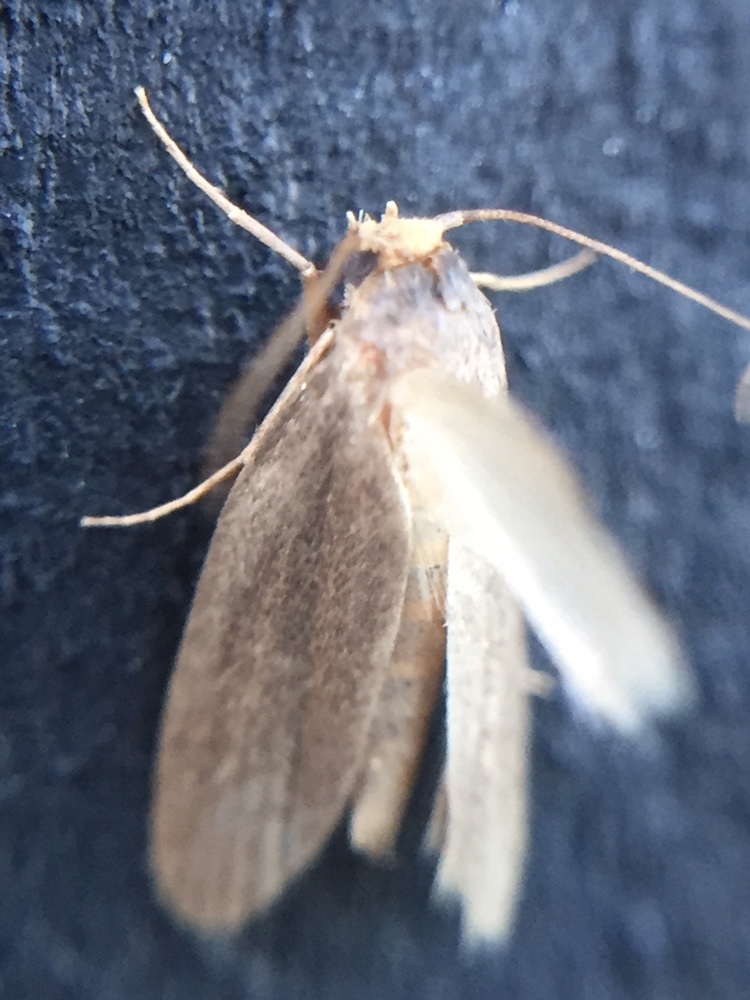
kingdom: Animalia
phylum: Arthropoda
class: Insecta
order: Lepidoptera
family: Pyralidae
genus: Achroia
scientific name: Achroia grisella
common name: Lesser wax moth
